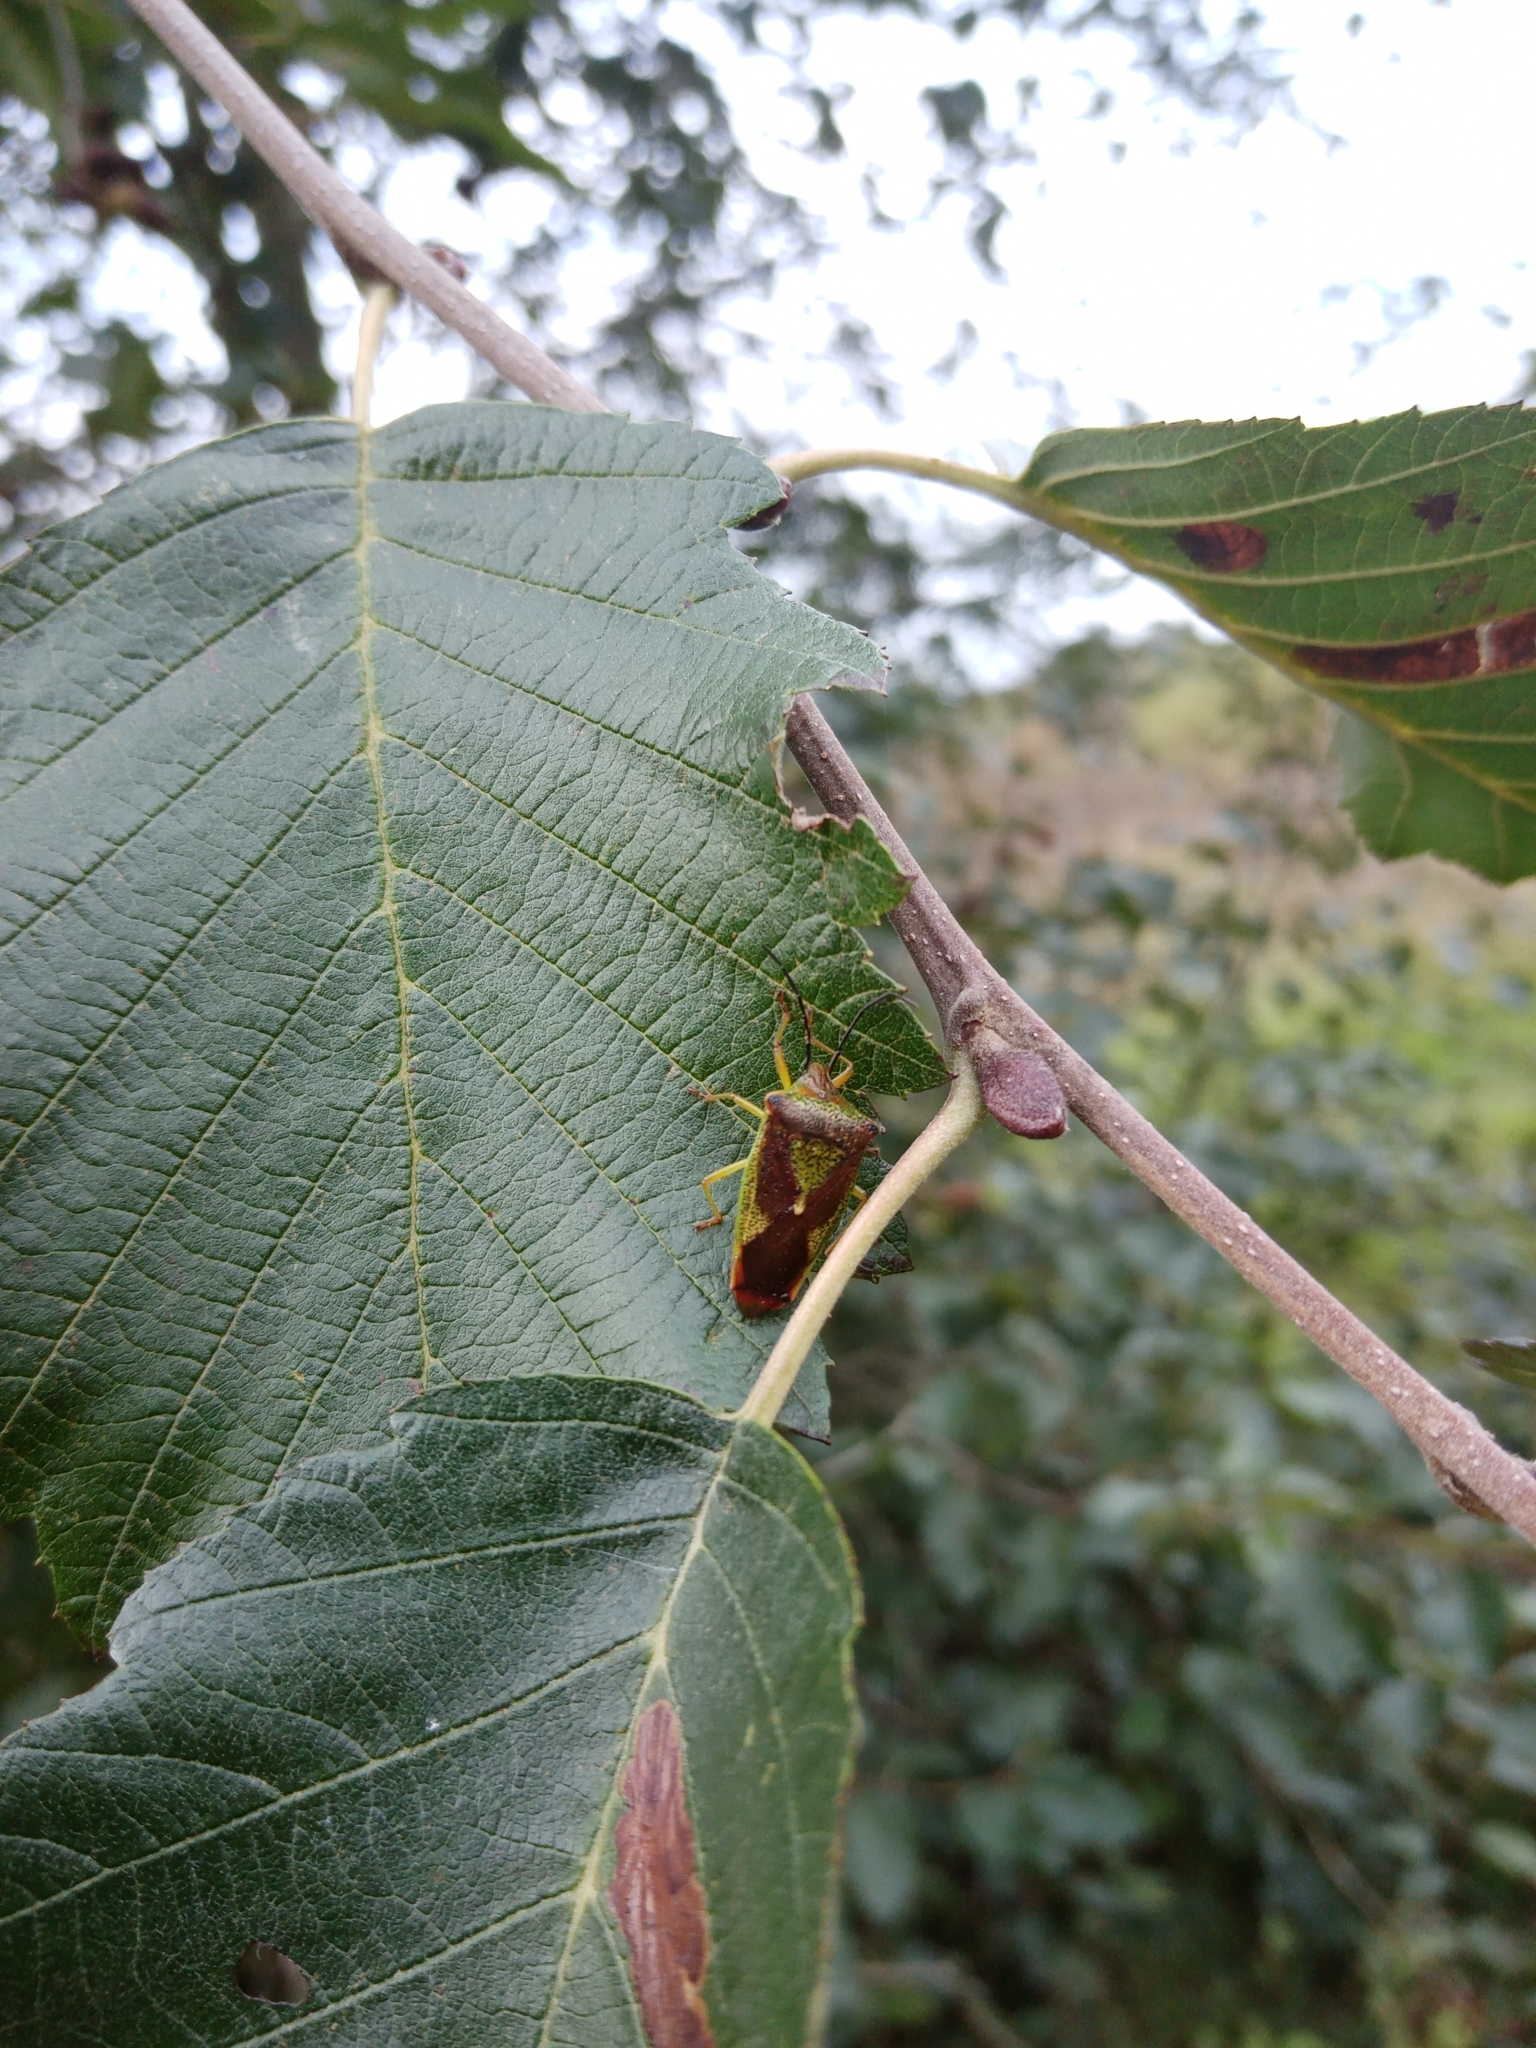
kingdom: Animalia
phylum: Arthropoda
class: Insecta
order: Hemiptera
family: Acanthosomatidae
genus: Acanthosoma
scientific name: Acanthosoma haemorrhoidale
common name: Hawthorn shieldbug
